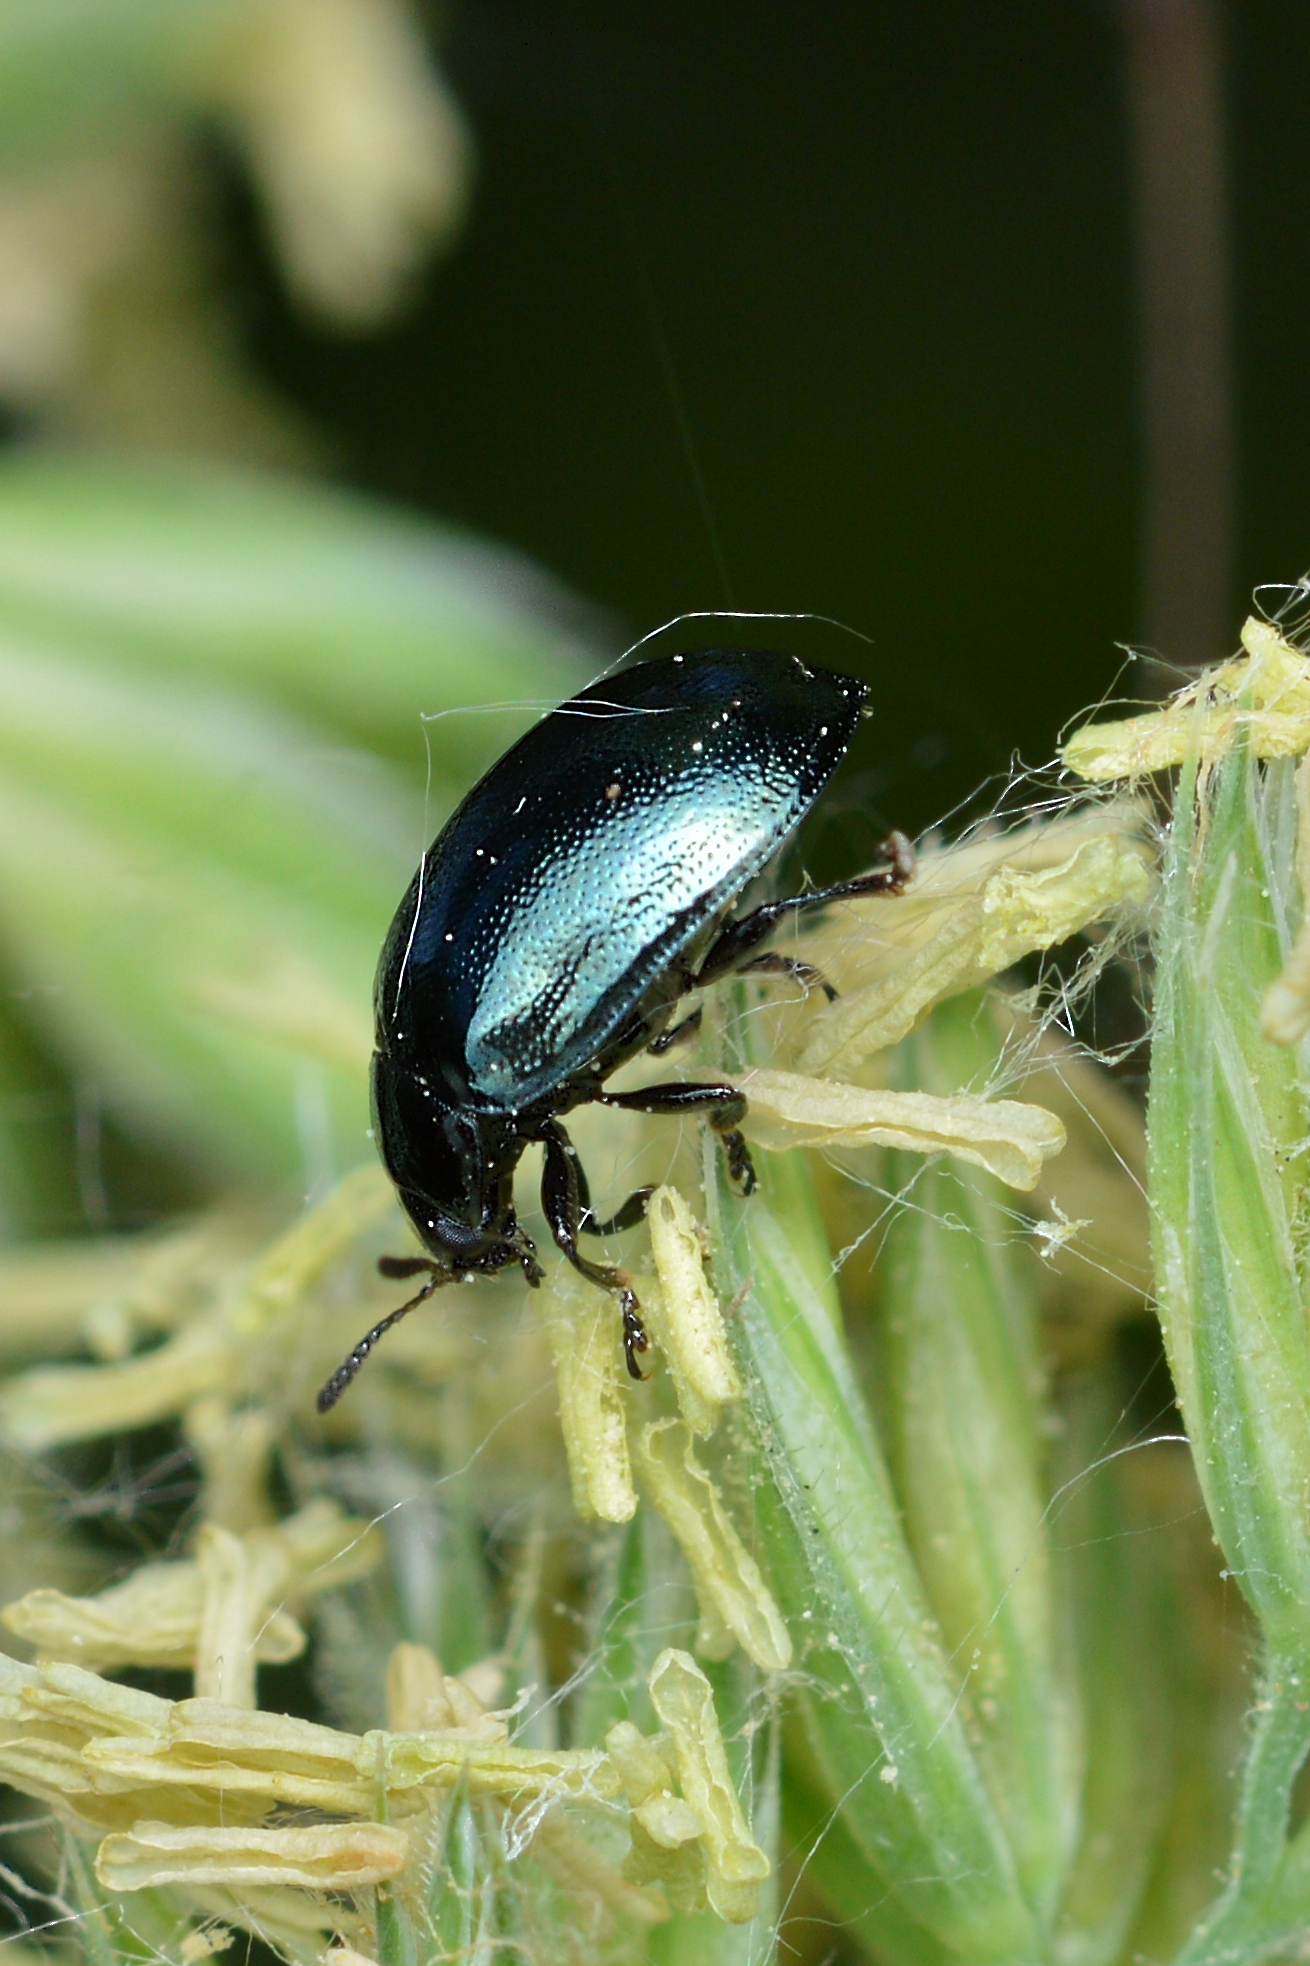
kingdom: Animalia
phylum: Arthropoda
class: Insecta
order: Coleoptera
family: Chrysomelidae
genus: Plagiodera
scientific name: Plagiodera versicolora
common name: Imported willow leaf beetle
